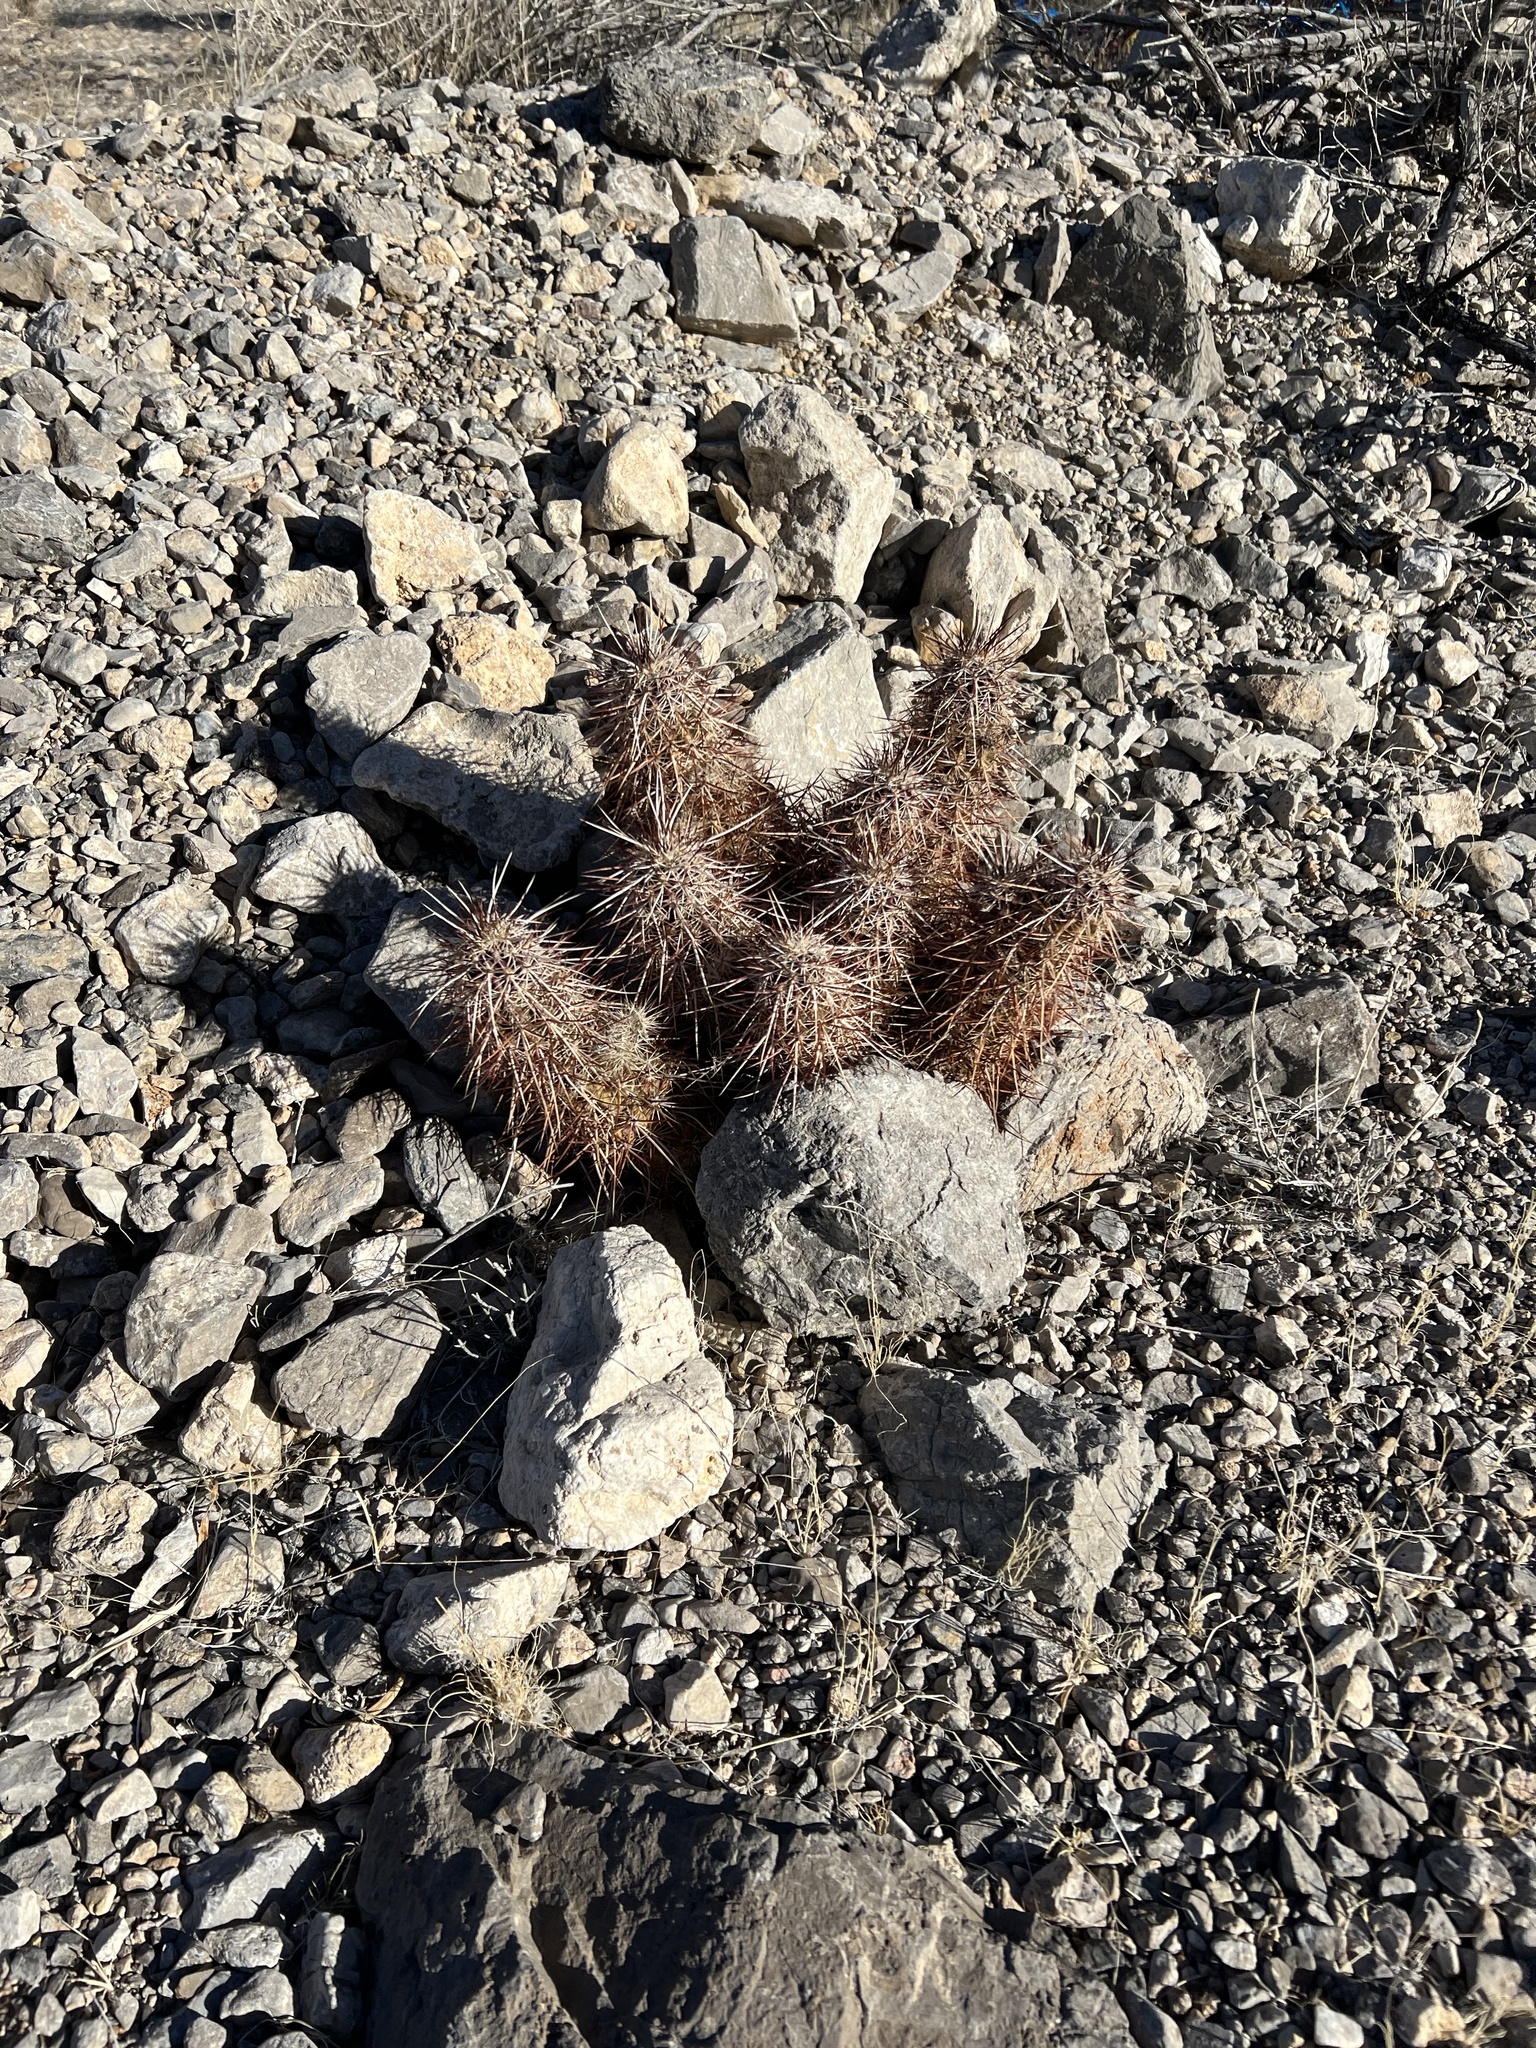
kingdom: Plantae
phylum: Tracheophyta
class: Magnoliopsida
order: Caryophyllales
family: Cactaceae
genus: Echinocereus
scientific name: Echinocereus engelmannii
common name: Engelmann's hedgehog cactus
